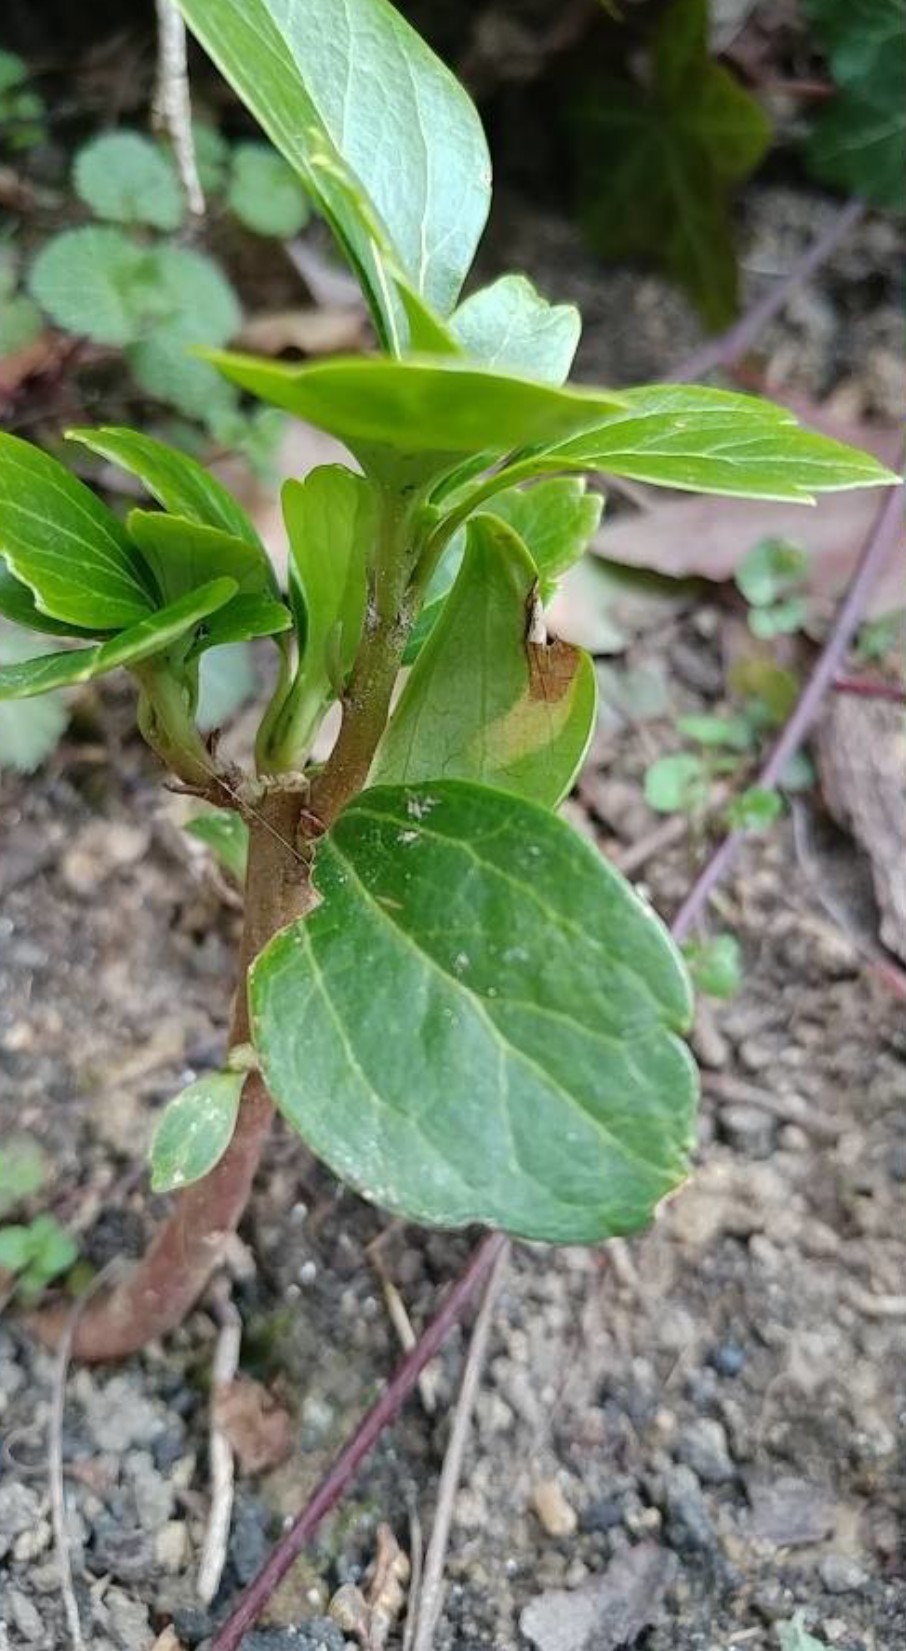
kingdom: Plantae
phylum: Tracheophyta
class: Magnoliopsida
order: Buxales
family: Buxaceae
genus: Pachysandra
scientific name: Pachysandra terminalis
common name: Japanese pachysandra
